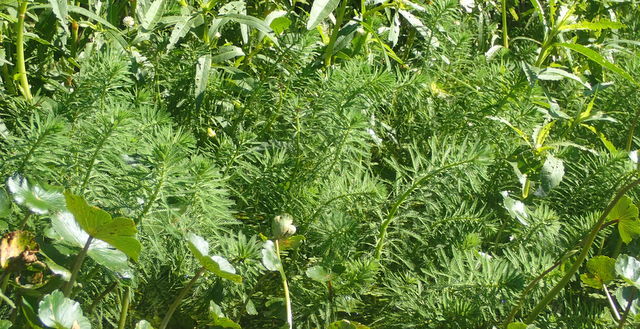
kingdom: Plantae
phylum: Tracheophyta
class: Magnoliopsida
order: Saxifragales
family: Haloragaceae
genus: Myriophyllum
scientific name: Myriophyllum aquaticum
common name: Parrot's feather
